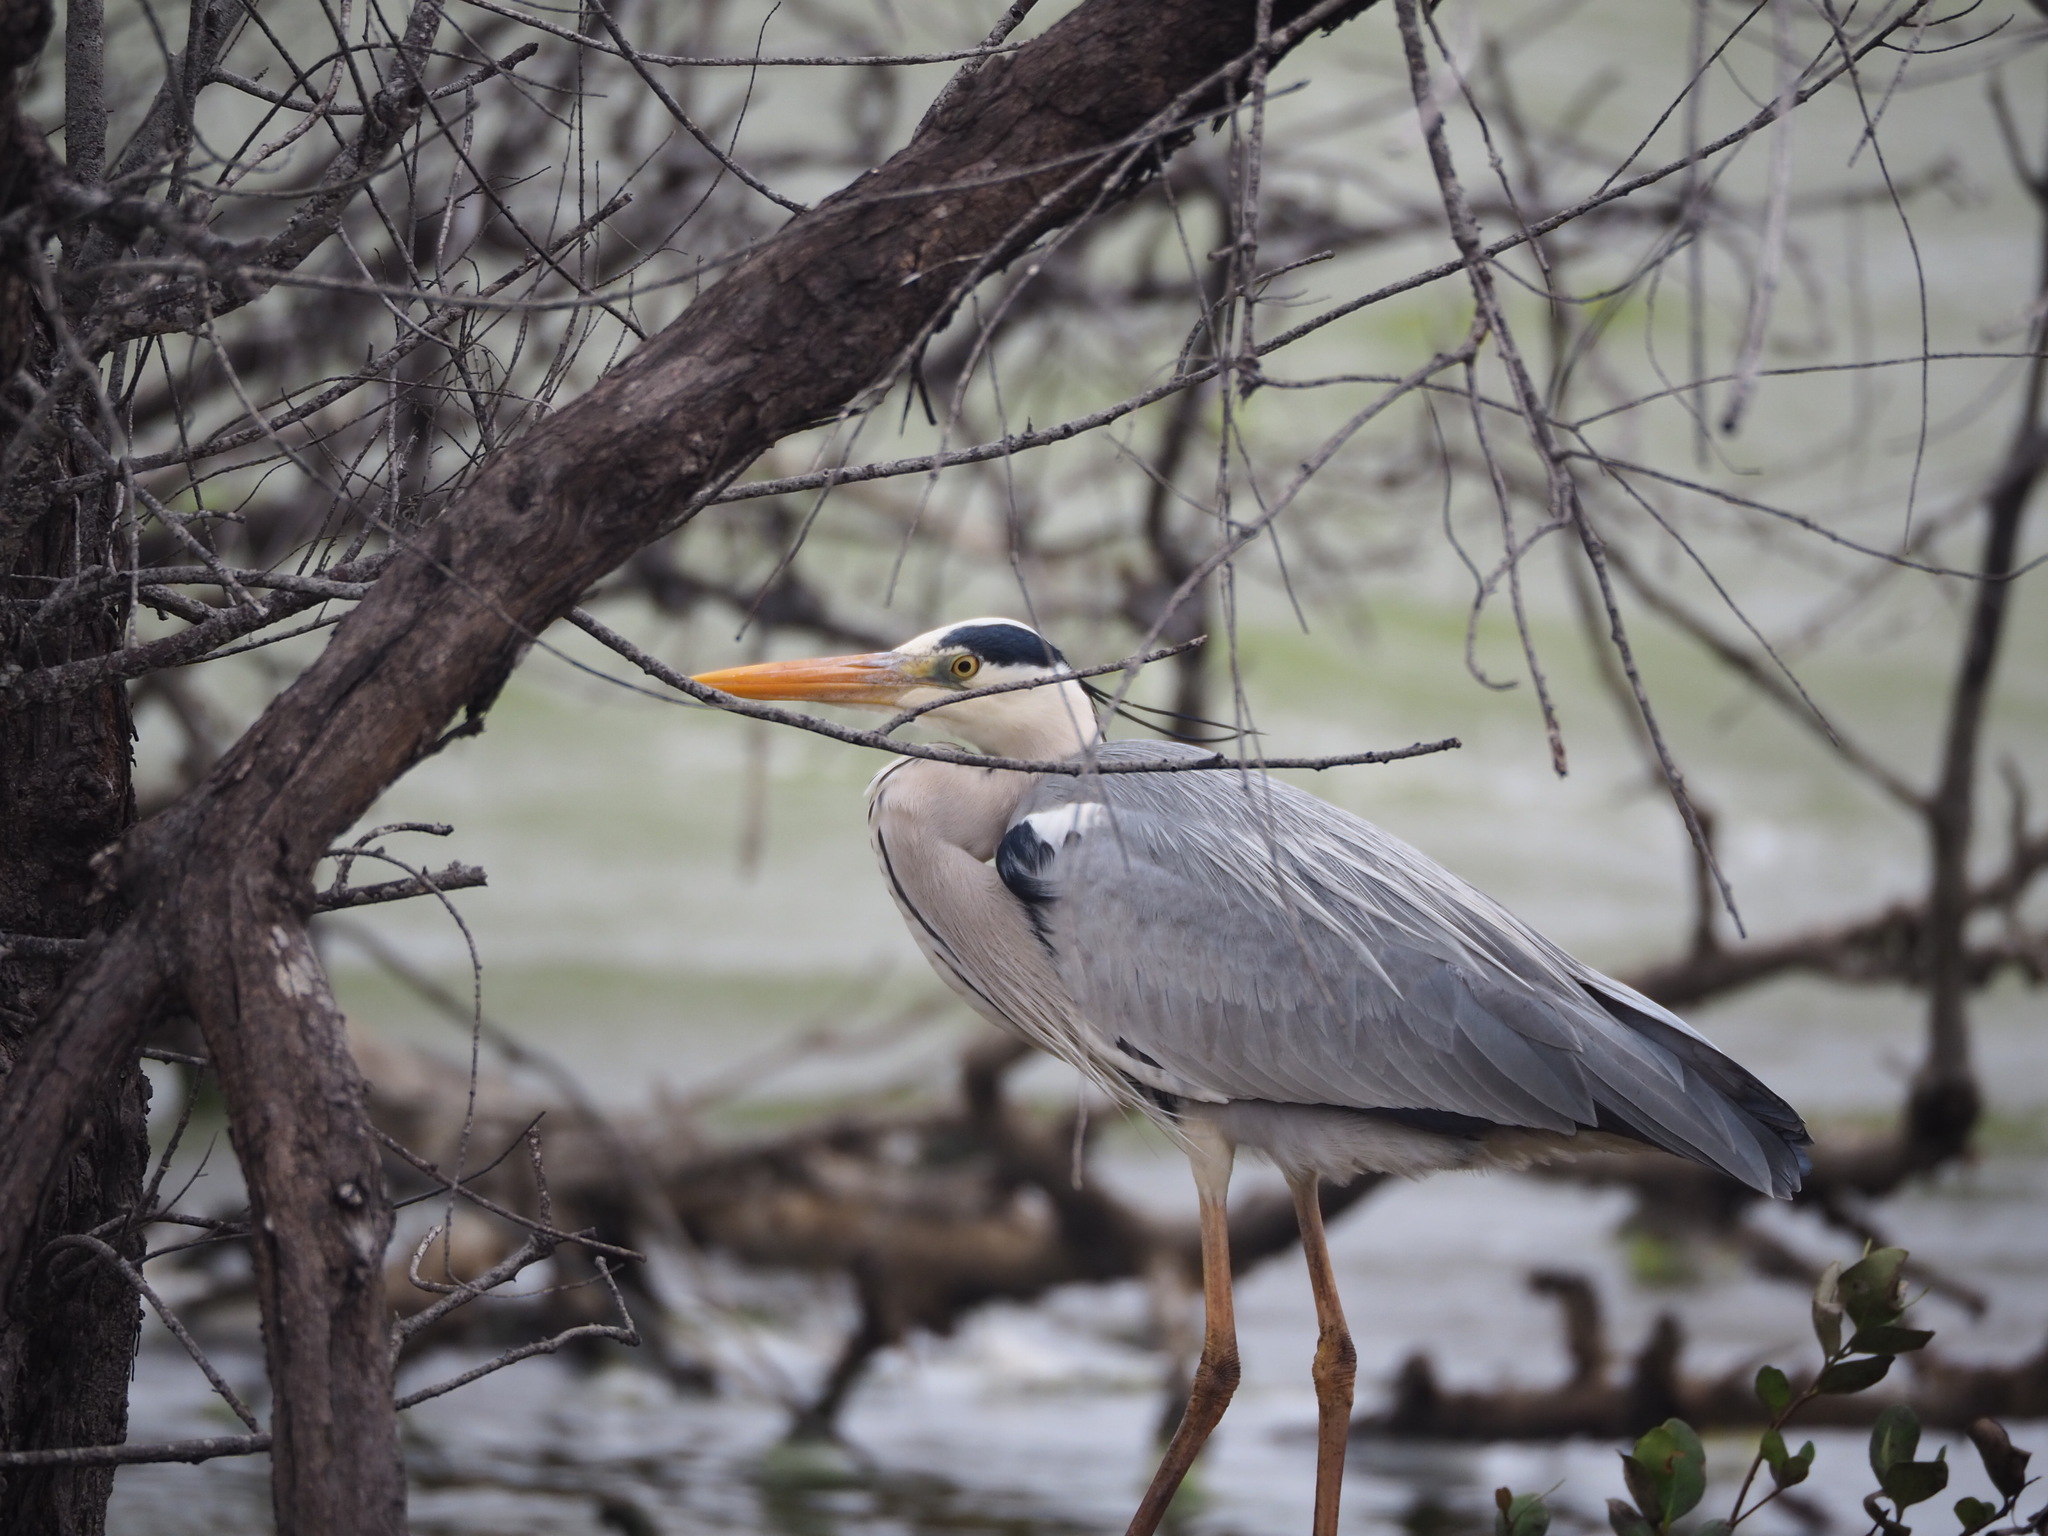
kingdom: Animalia
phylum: Chordata
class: Aves
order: Pelecaniformes
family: Ardeidae
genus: Ardea
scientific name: Ardea cinerea
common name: Grey heron
